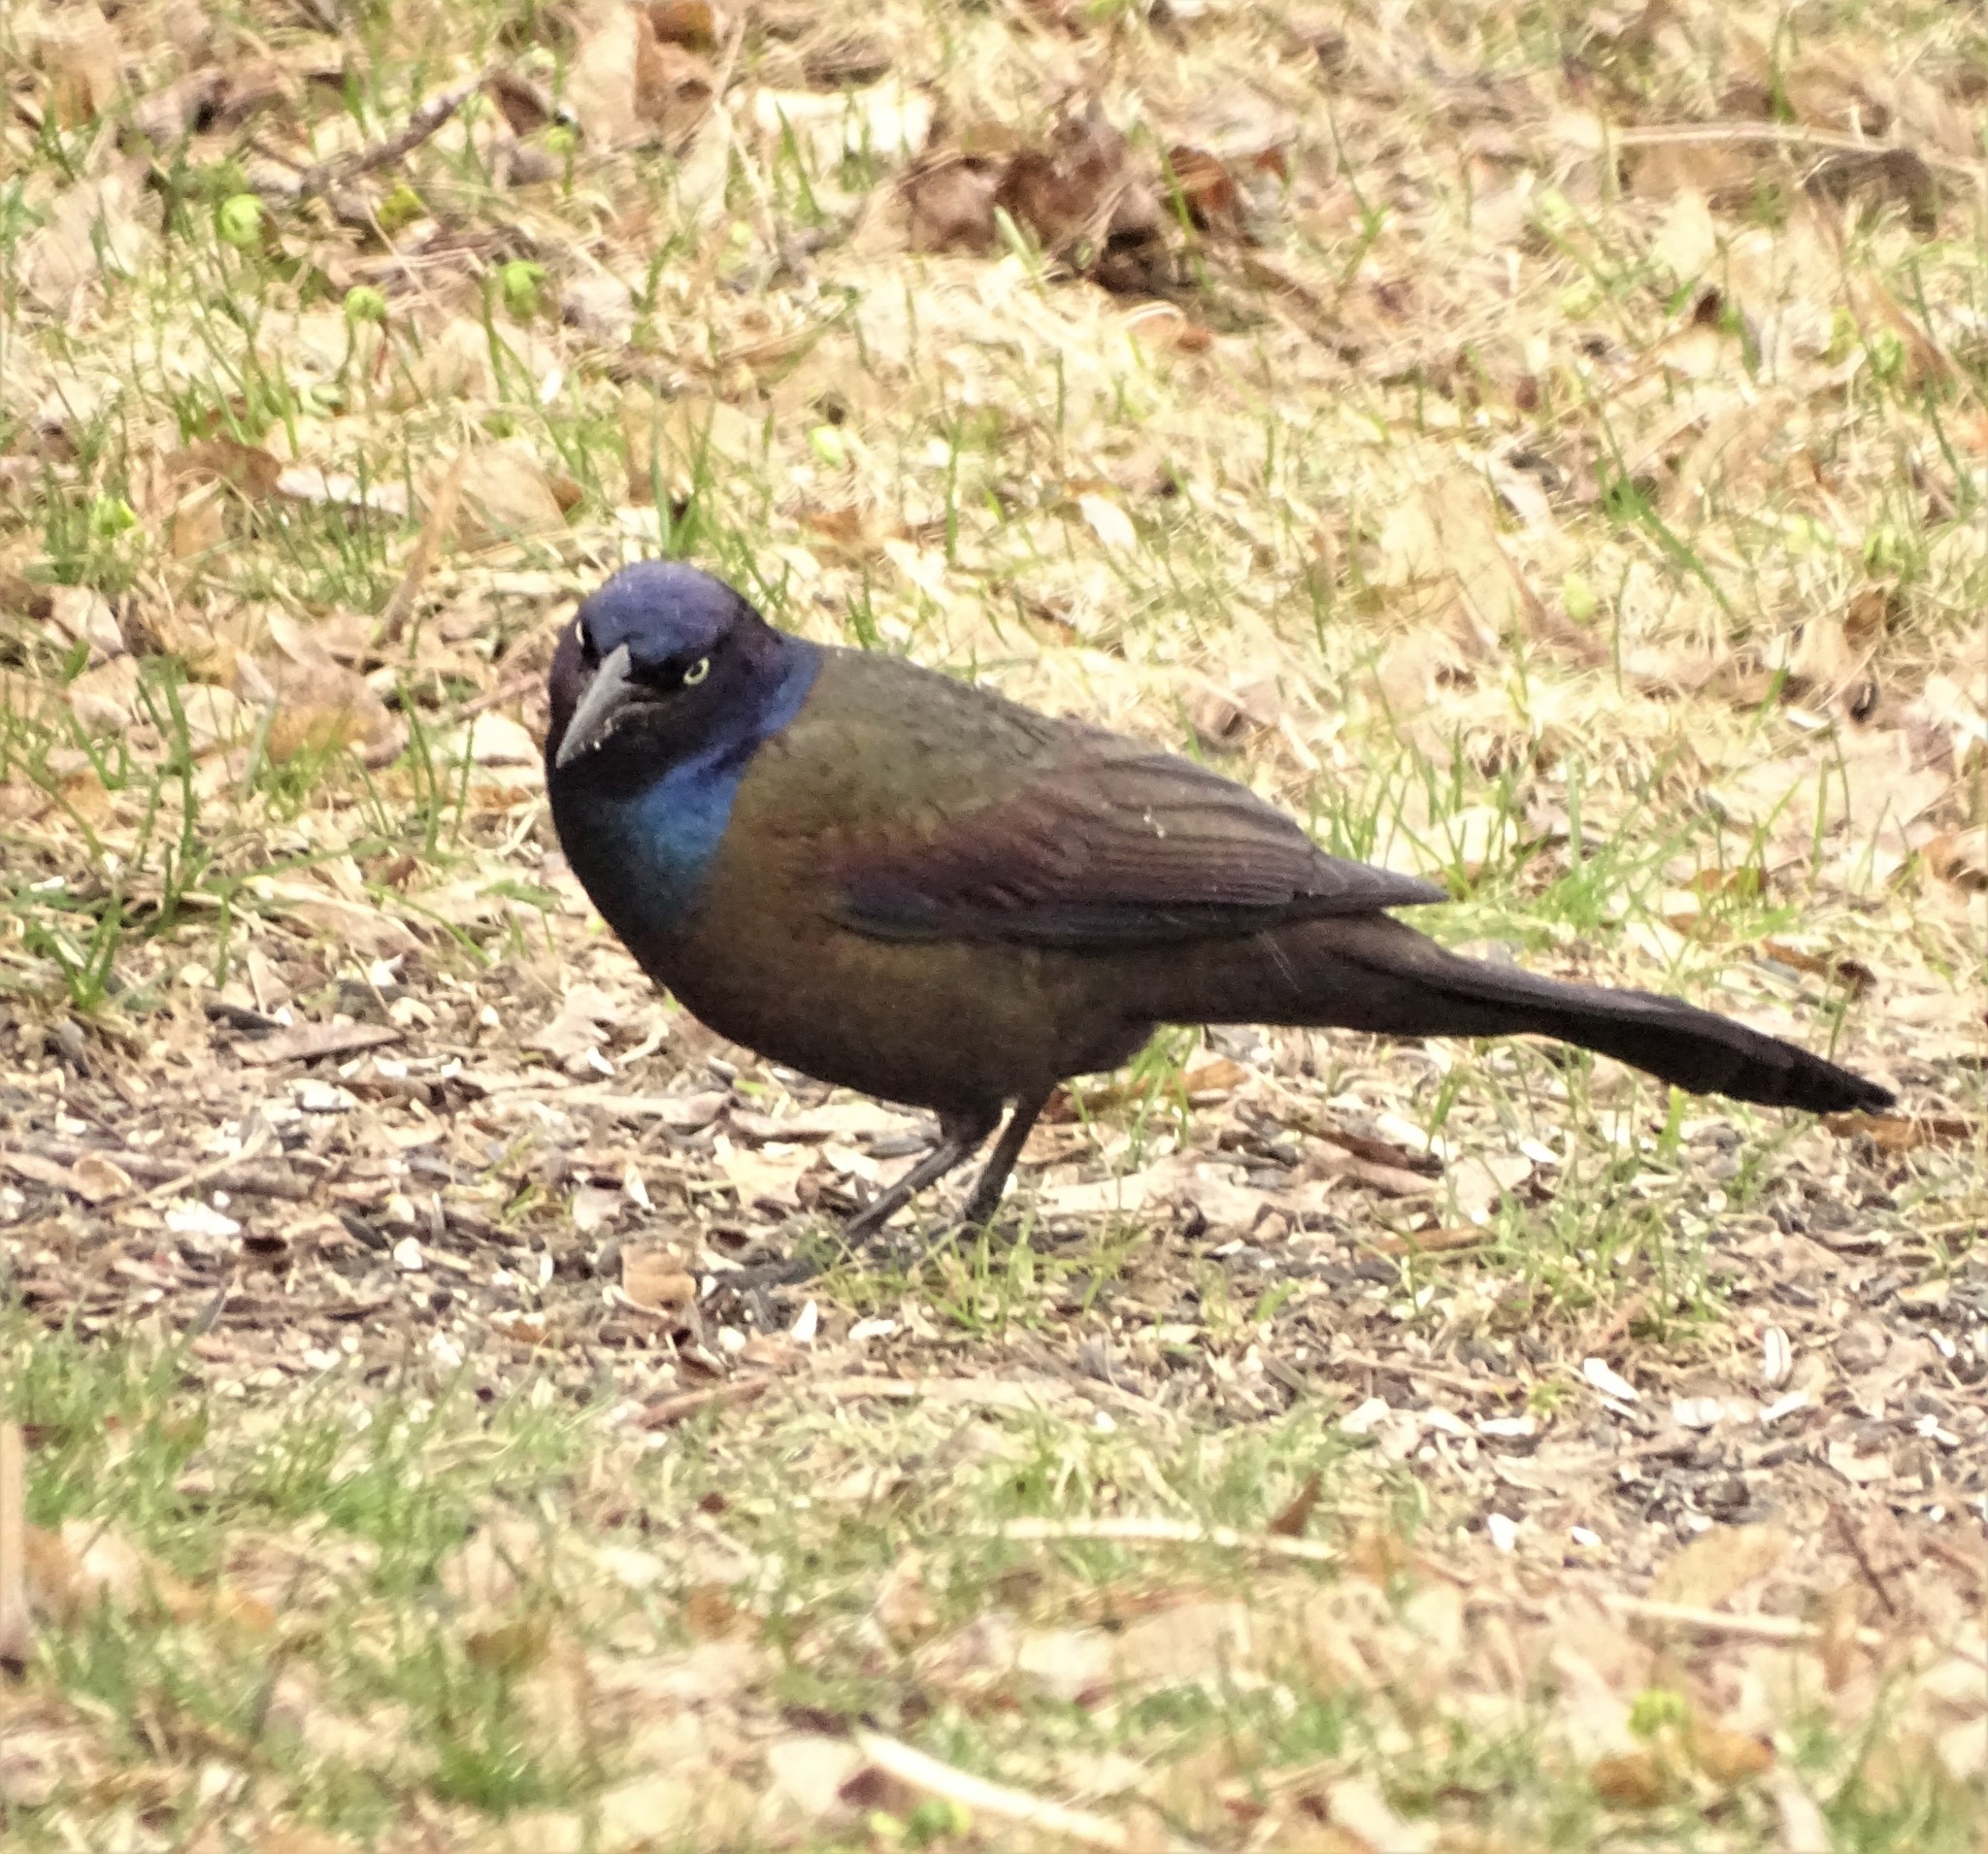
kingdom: Animalia
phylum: Chordata
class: Aves
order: Passeriformes
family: Icteridae
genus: Quiscalus
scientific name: Quiscalus quiscula
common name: Common grackle
